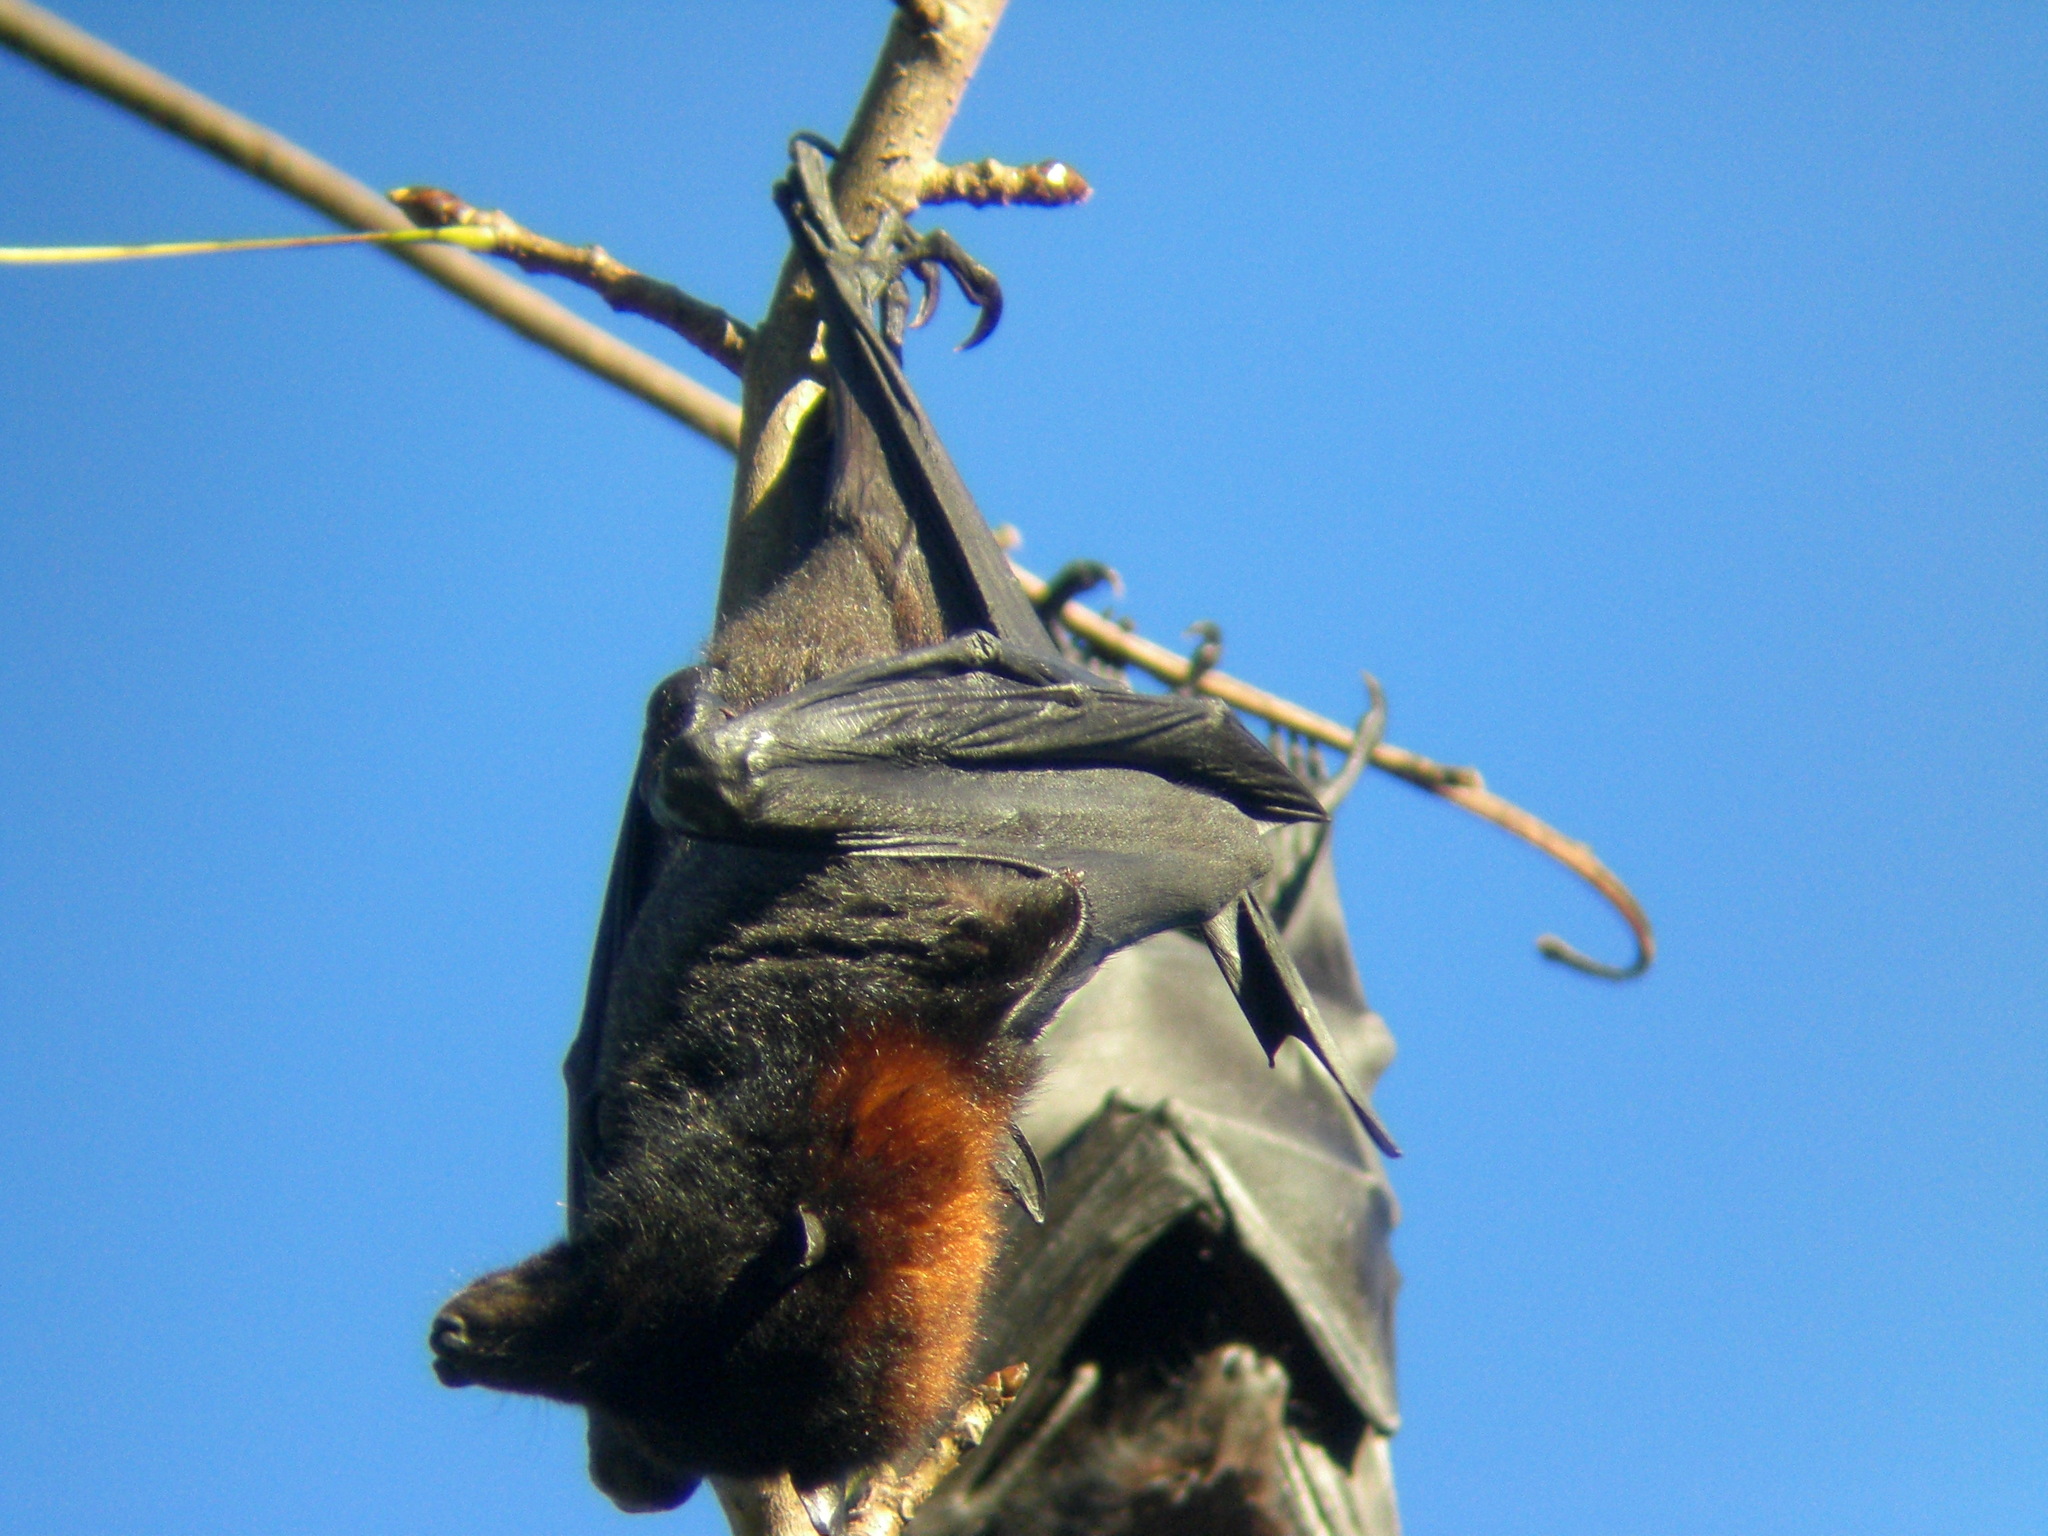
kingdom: Animalia
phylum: Chordata
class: Mammalia
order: Chiroptera
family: Pteropodidae
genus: Pteropus
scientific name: Pteropus alecto
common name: Black flying fox
